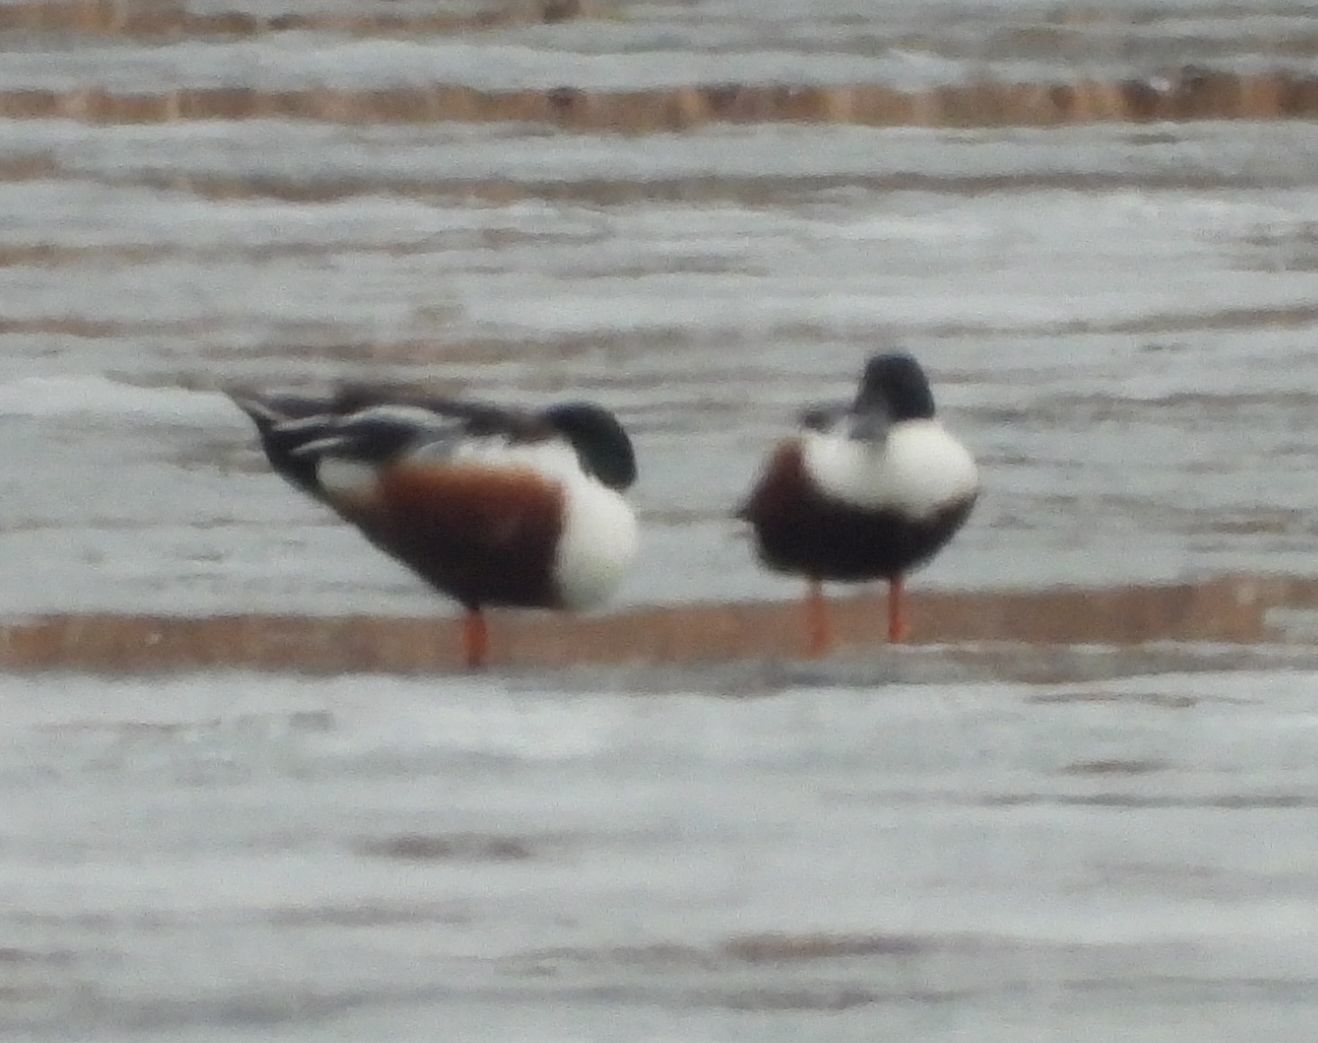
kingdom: Animalia
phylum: Chordata
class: Aves
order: Anseriformes
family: Anatidae
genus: Spatula
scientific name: Spatula clypeata
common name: Northern shoveler
